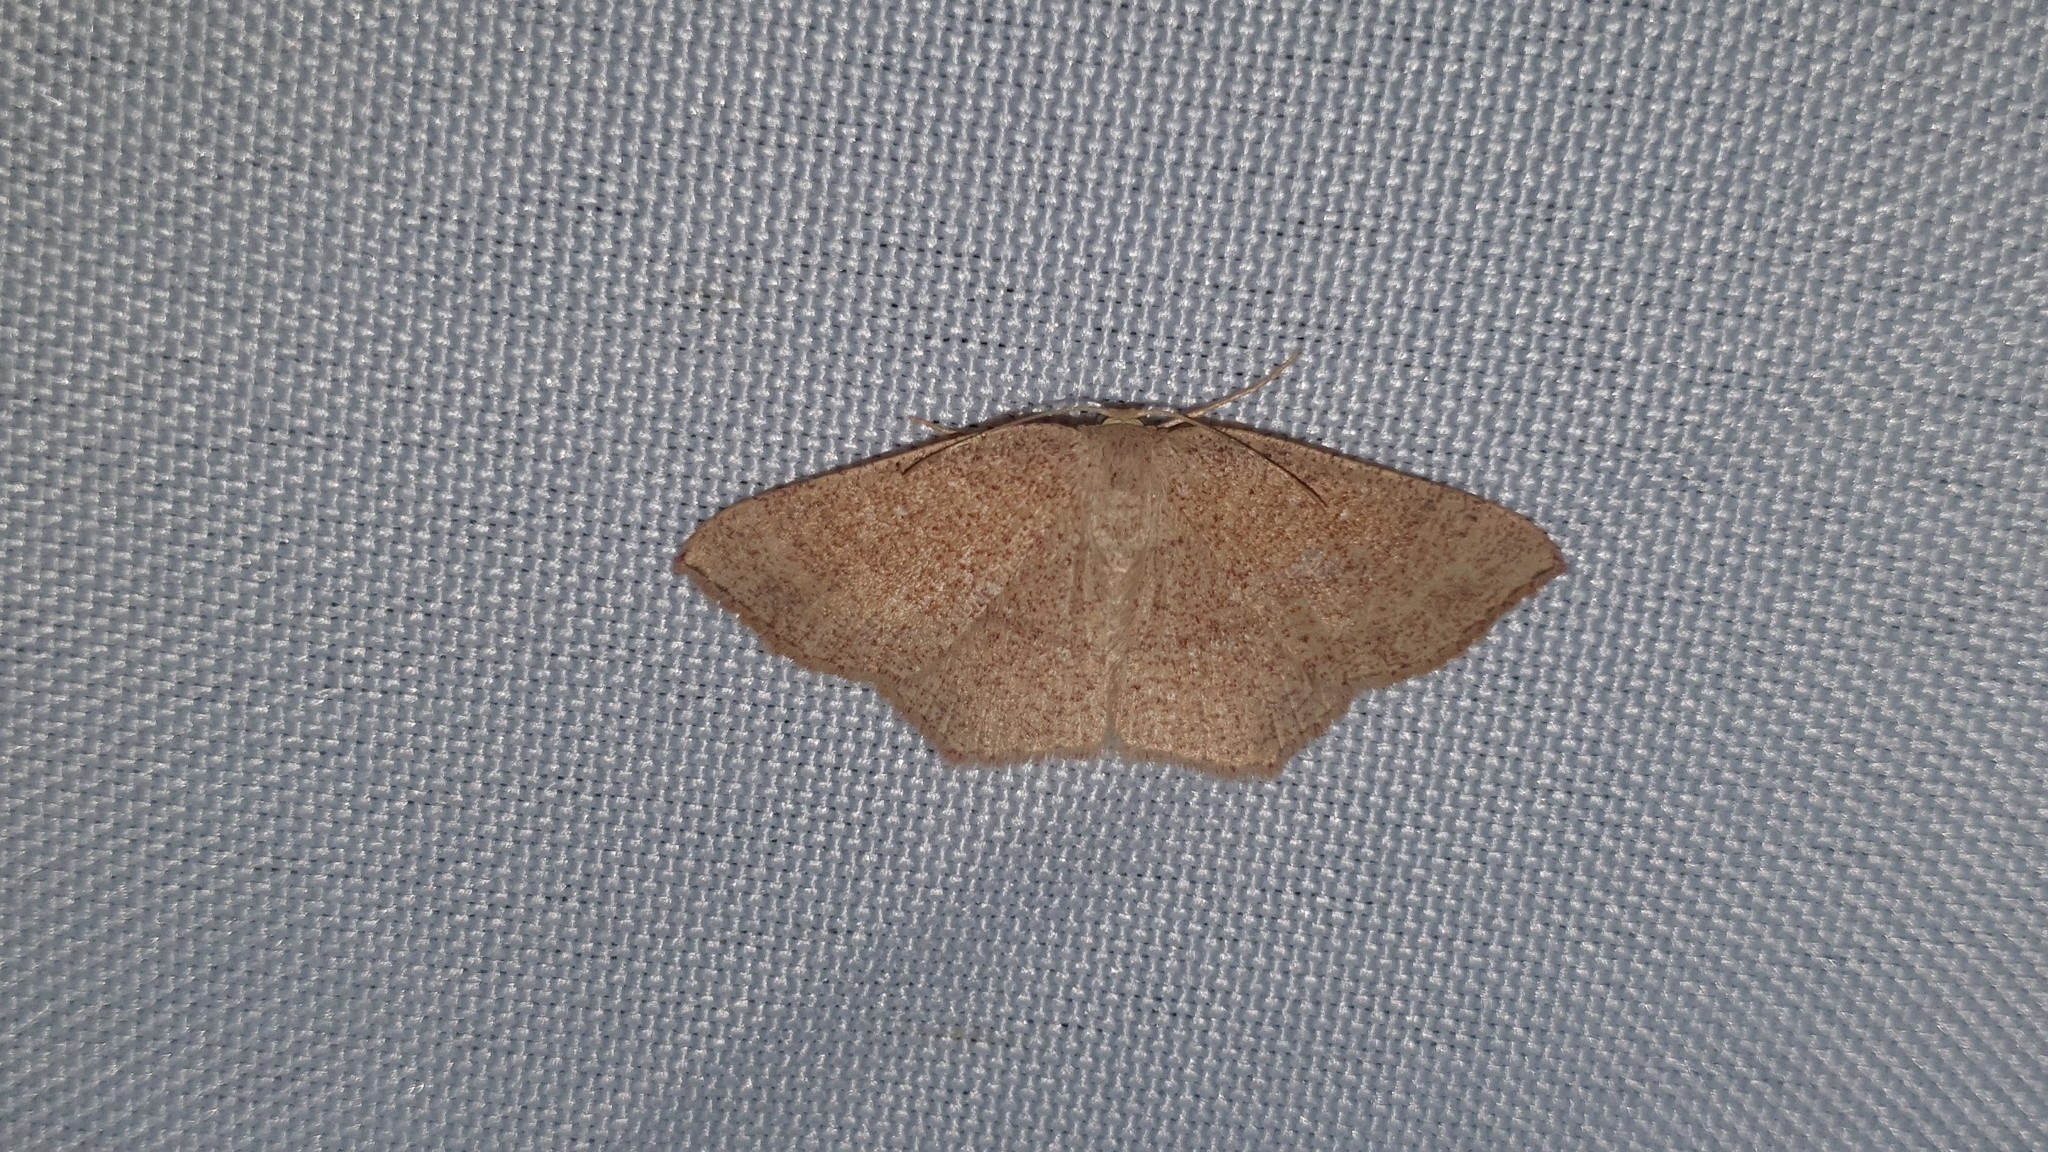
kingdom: Animalia
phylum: Arthropoda
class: Insecta
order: Lepidoptera
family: Geometridae
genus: Cyclophora
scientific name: Cyclophora puppillaria
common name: Blair's mocha
